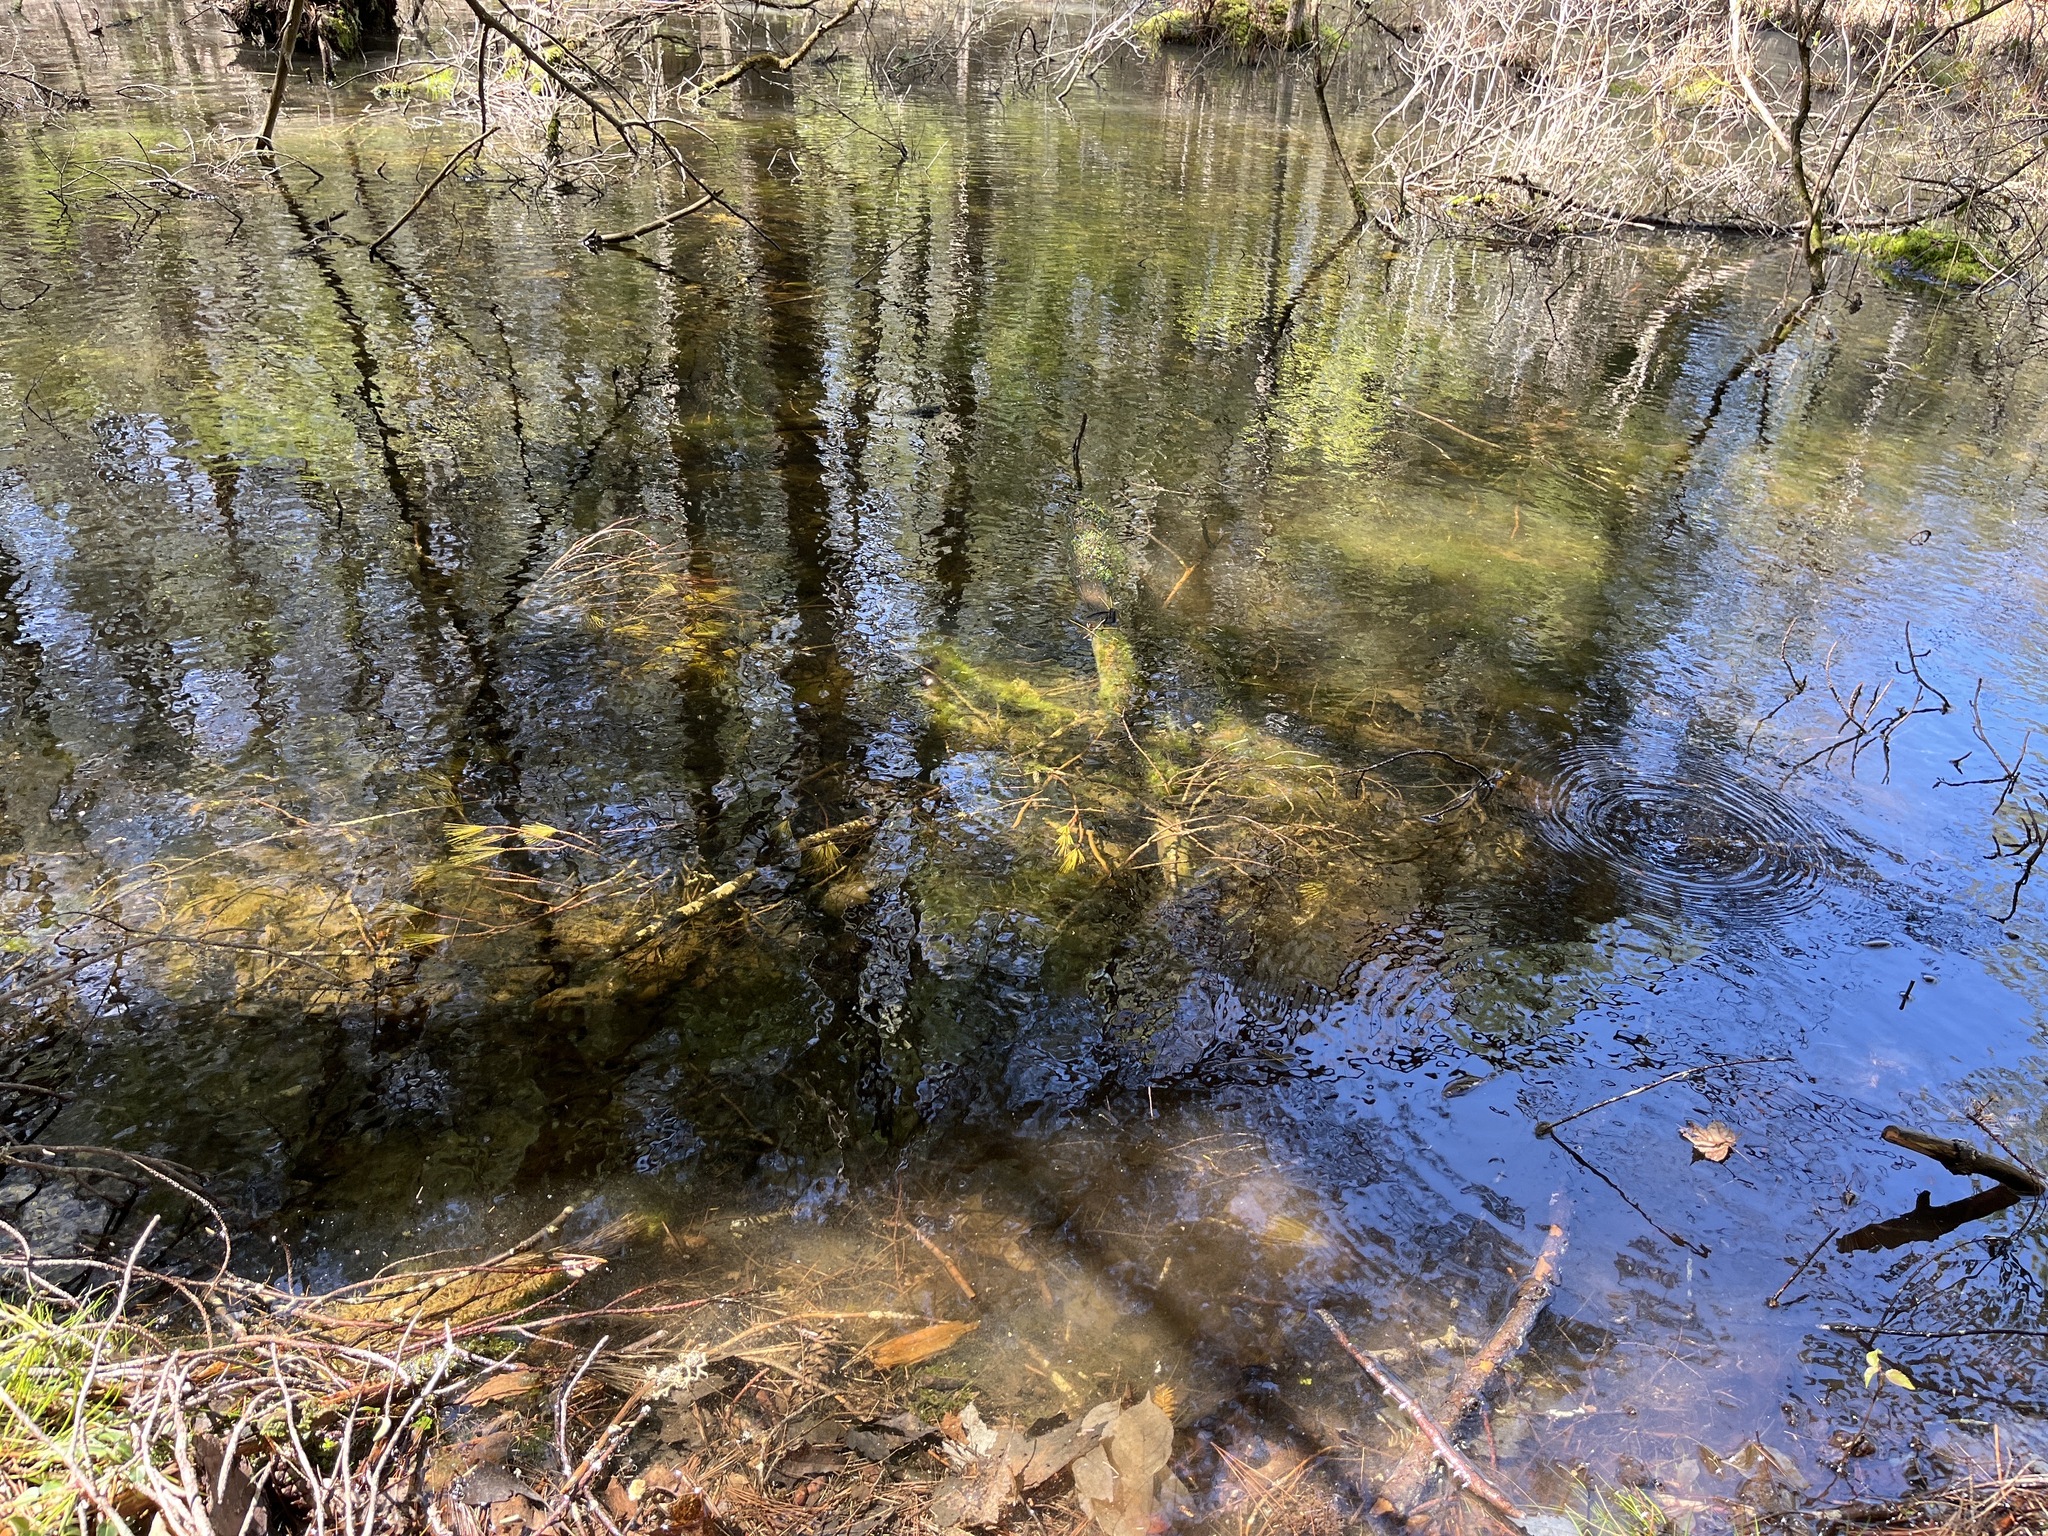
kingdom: Animalia
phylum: Chordata
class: Amphibia
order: Caudata
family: Ambystomatidae
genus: Ambystoma
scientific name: Ambystoma maculatum
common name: Spotted salamander
